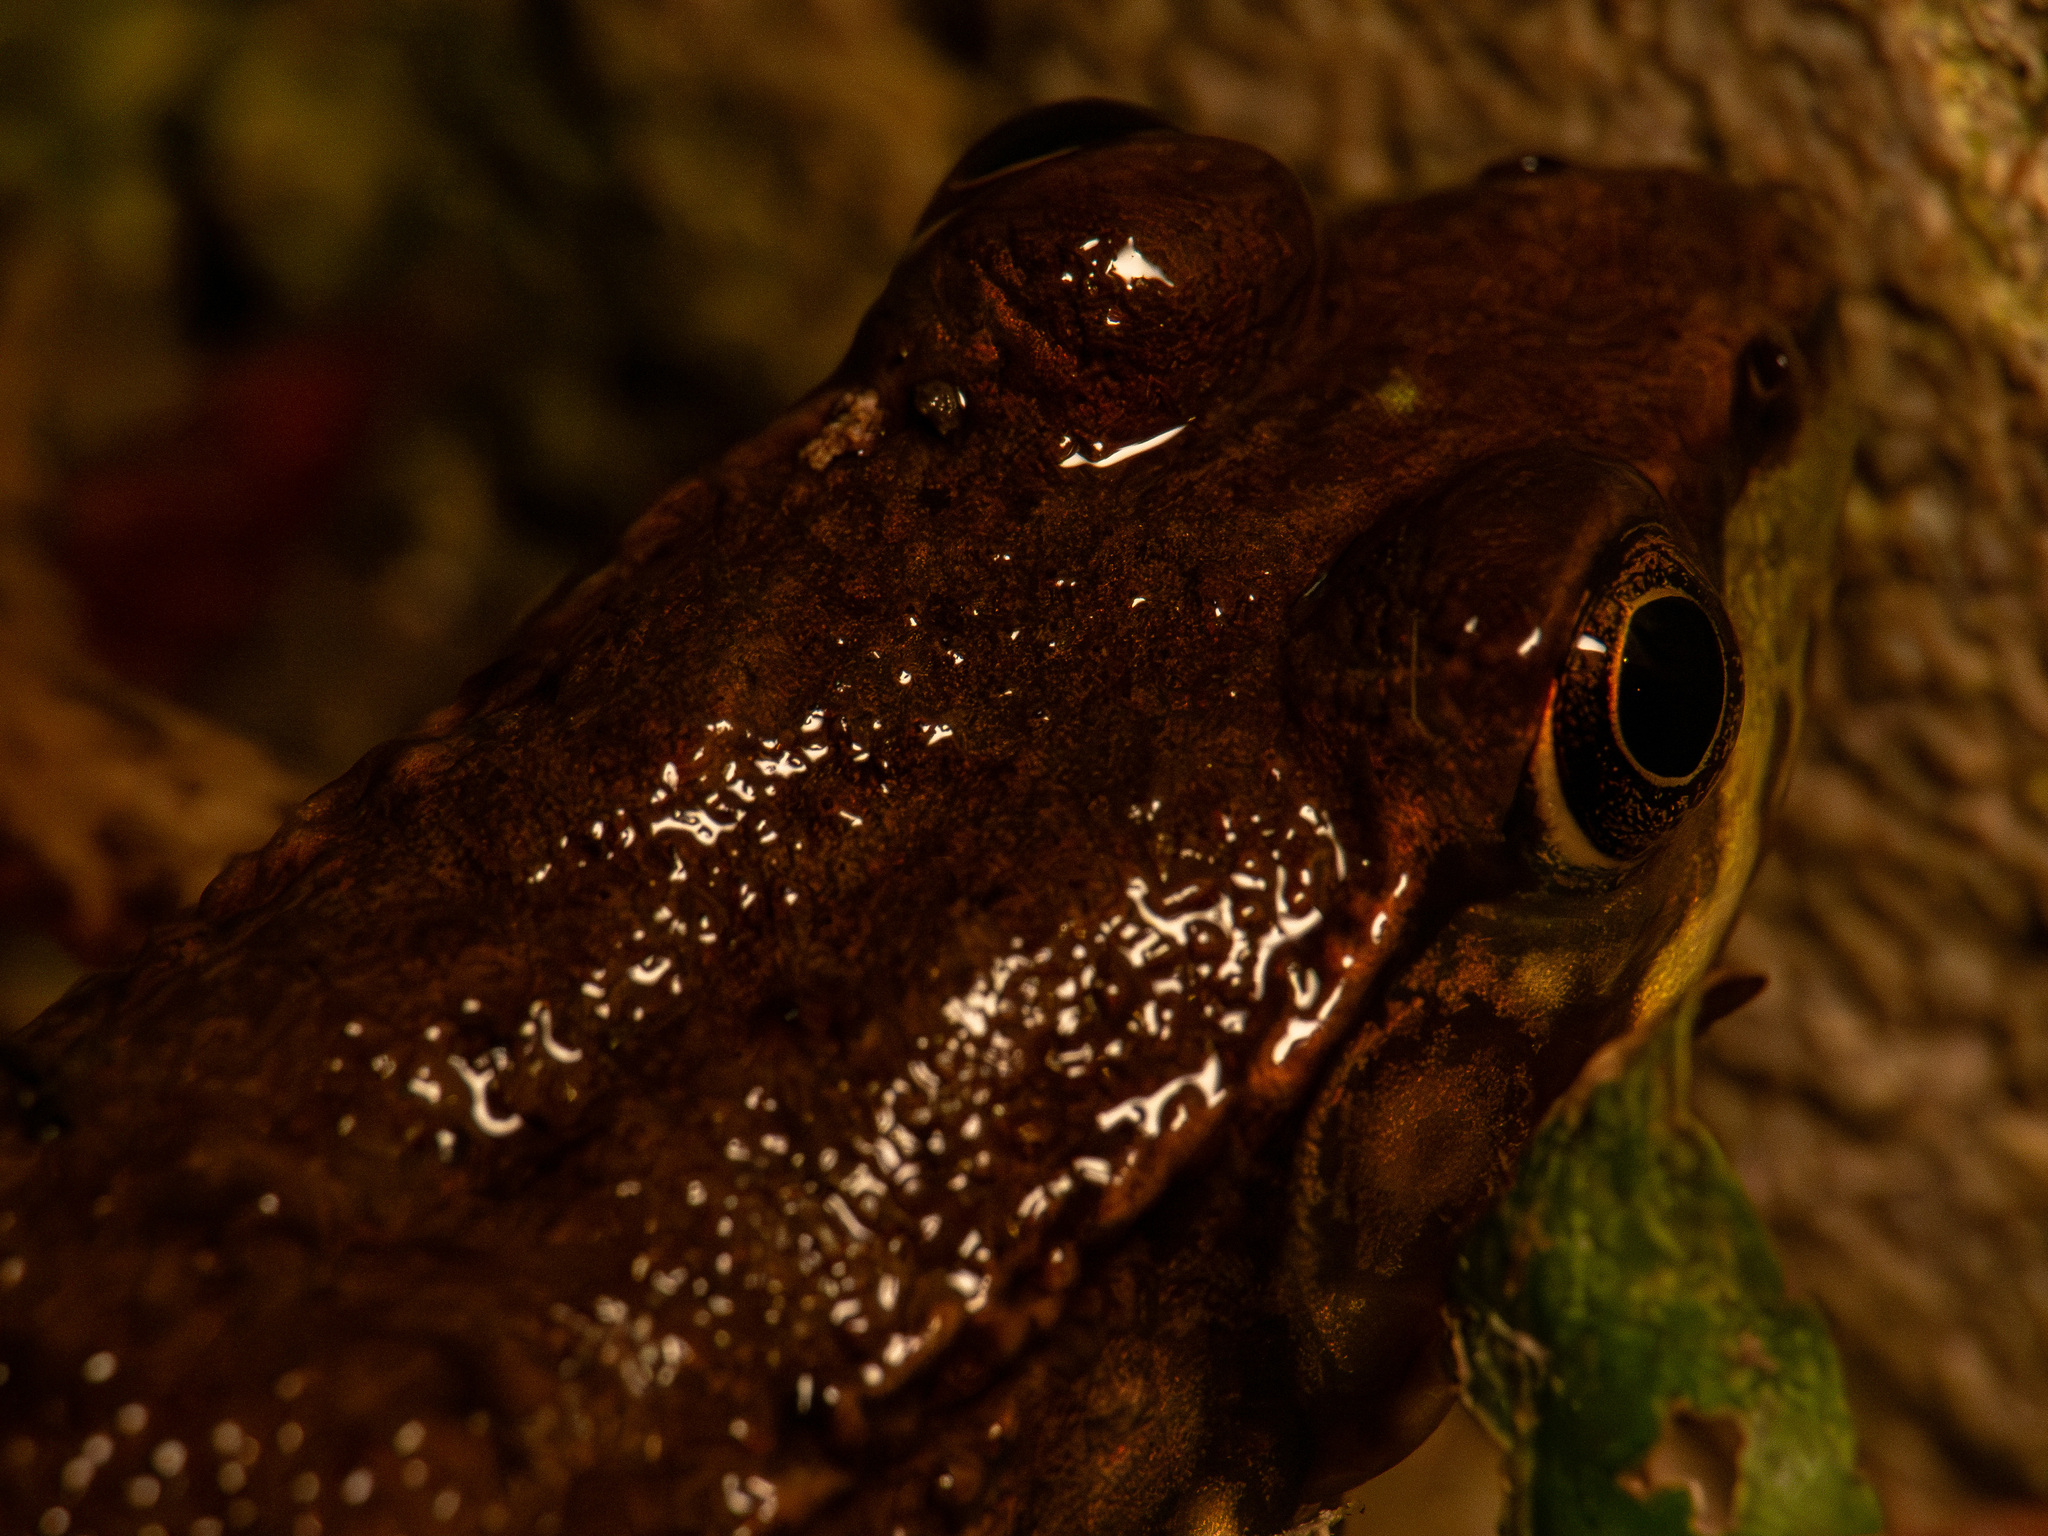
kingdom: Animalia
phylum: Chordata
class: Amphibia
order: Anura
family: Ranidae
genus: Lithobates
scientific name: Lithobates clamitans
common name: Green frog
